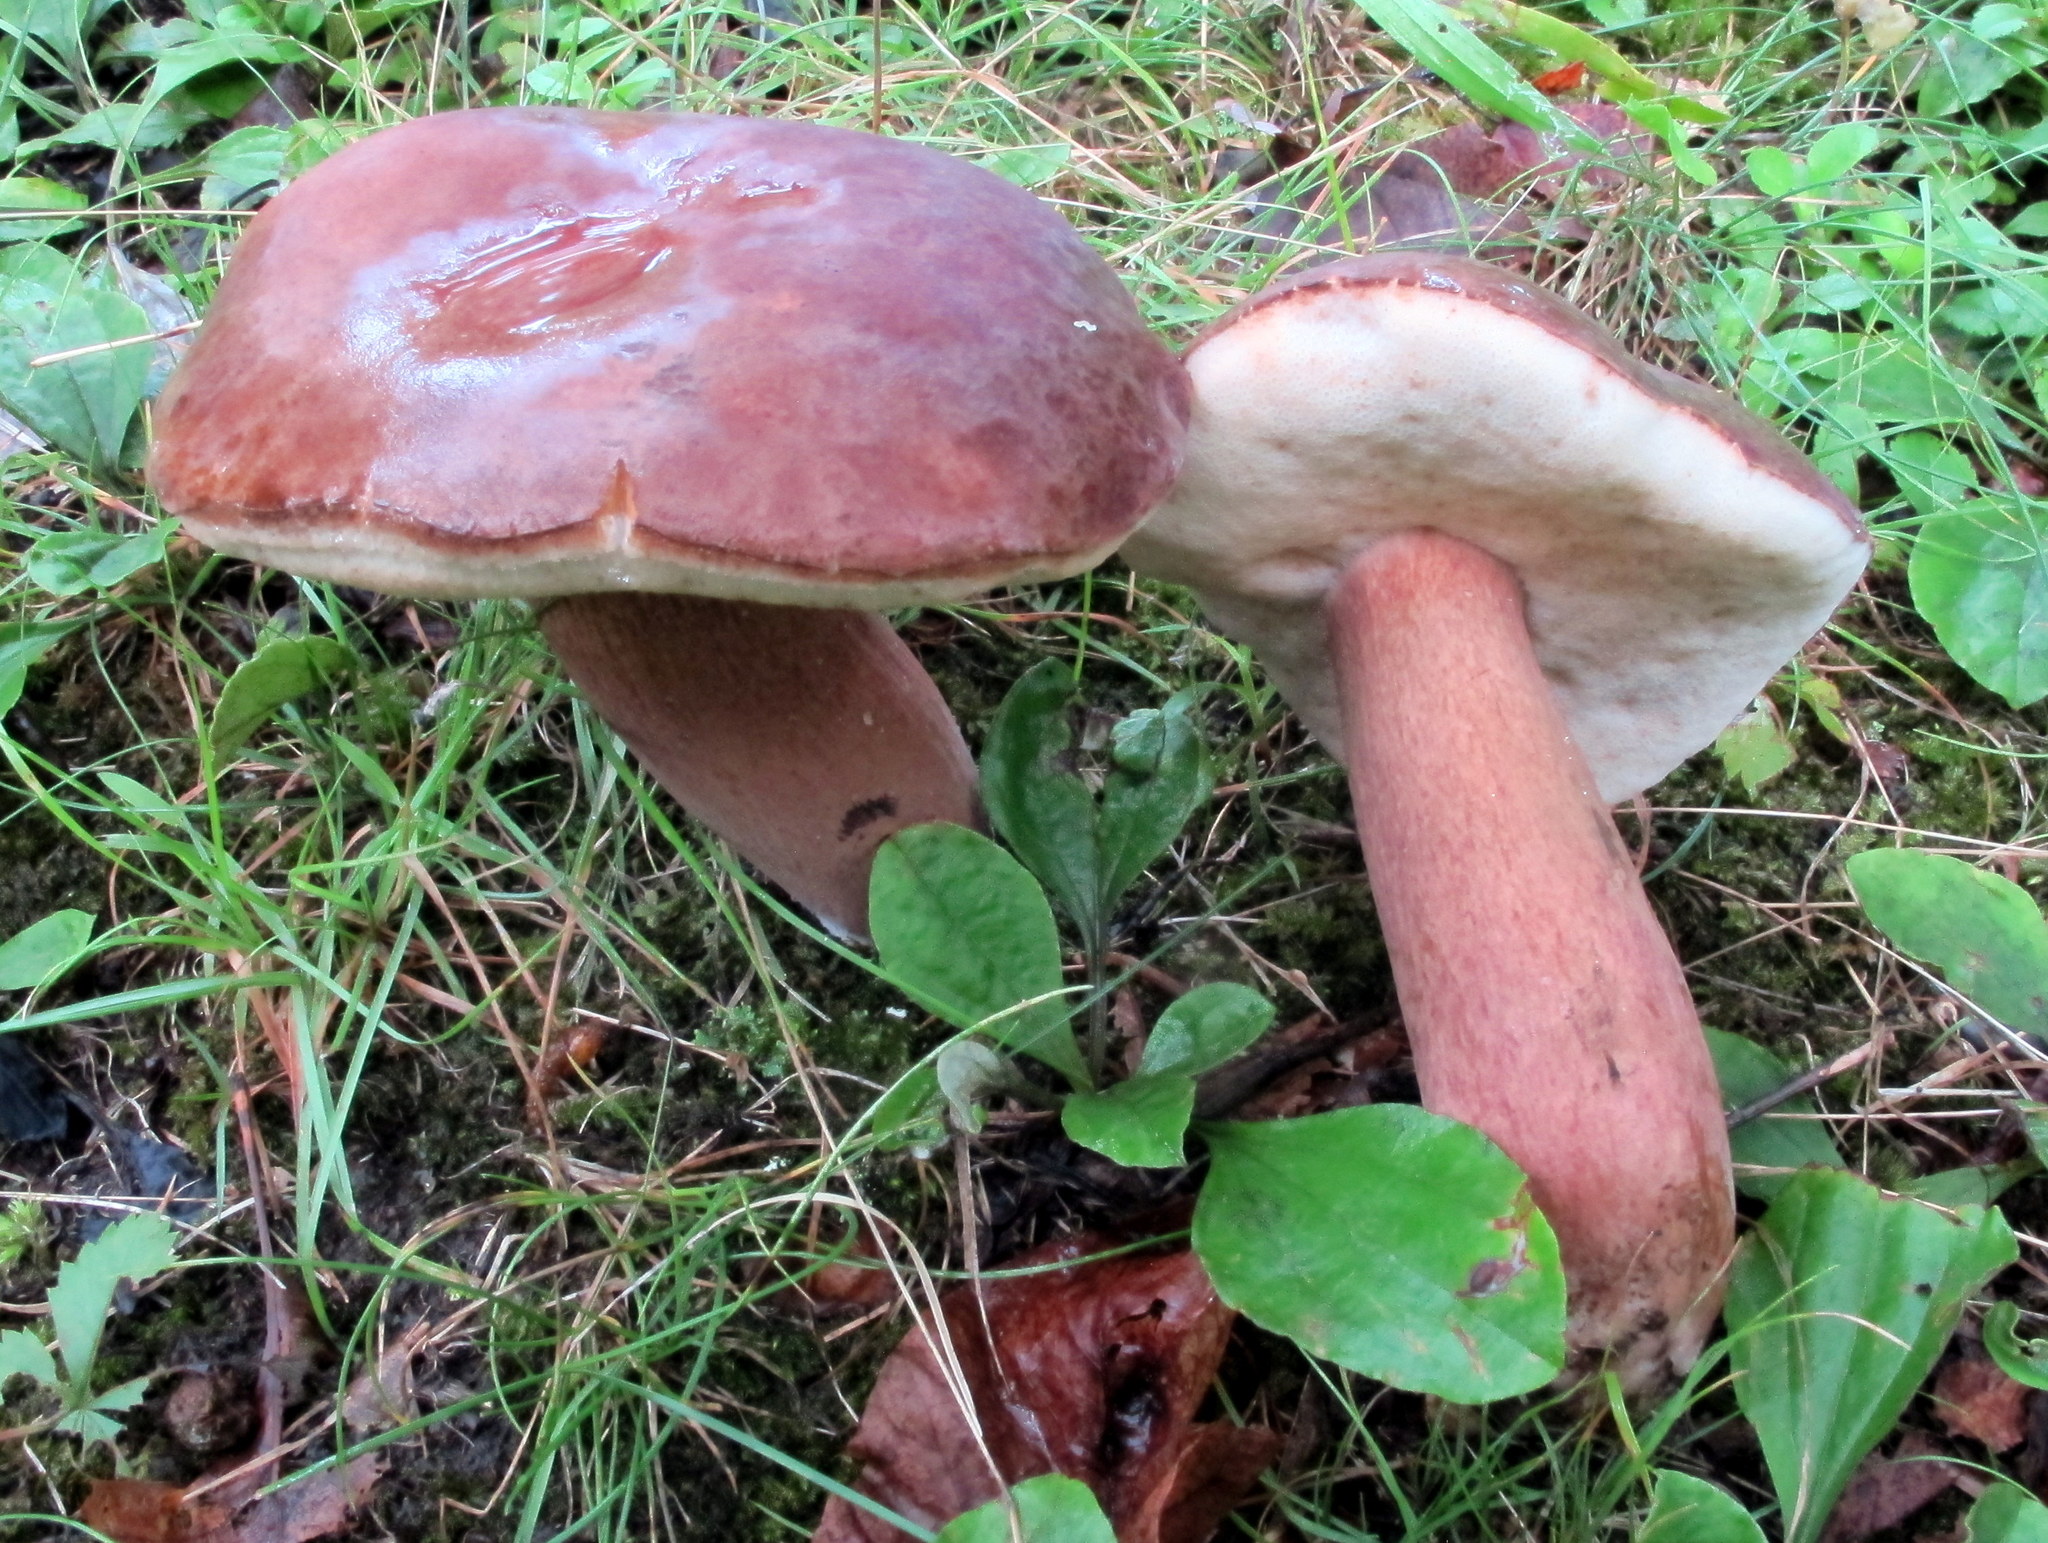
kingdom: Fungi
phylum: Basidiomycota
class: Agaricomycetes
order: Boletales
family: Boletaceae
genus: Tylopilus
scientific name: Tylopilus badiceps
